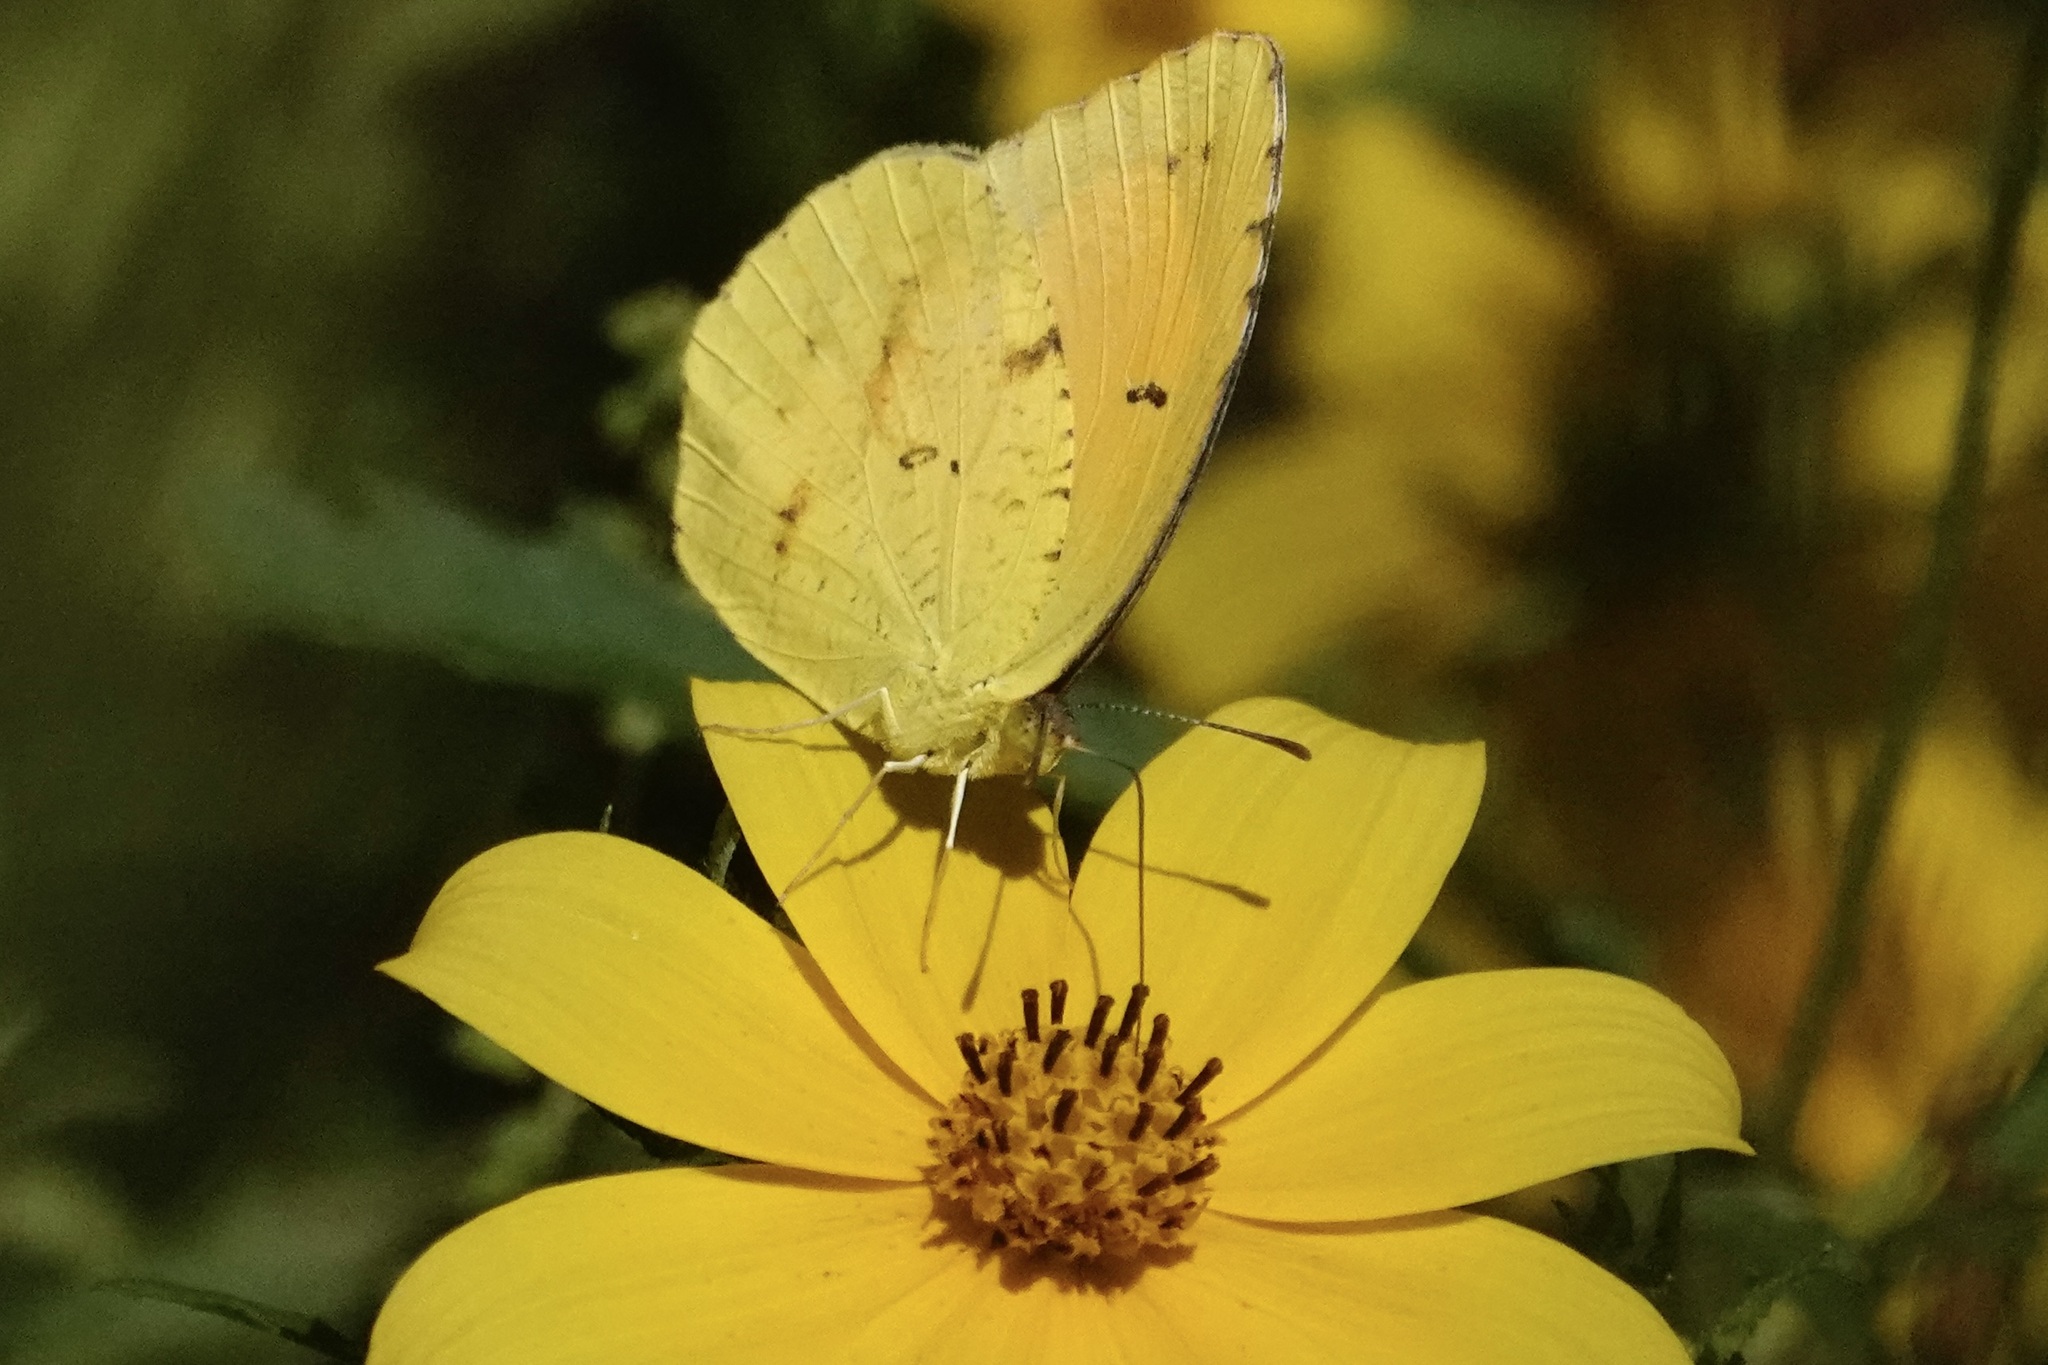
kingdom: Animalia
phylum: Arthropoda
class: Insecta
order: Lepidoptera
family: Pieridae
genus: Abaeis
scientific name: Abaeis nicippe
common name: Sleepy orange
